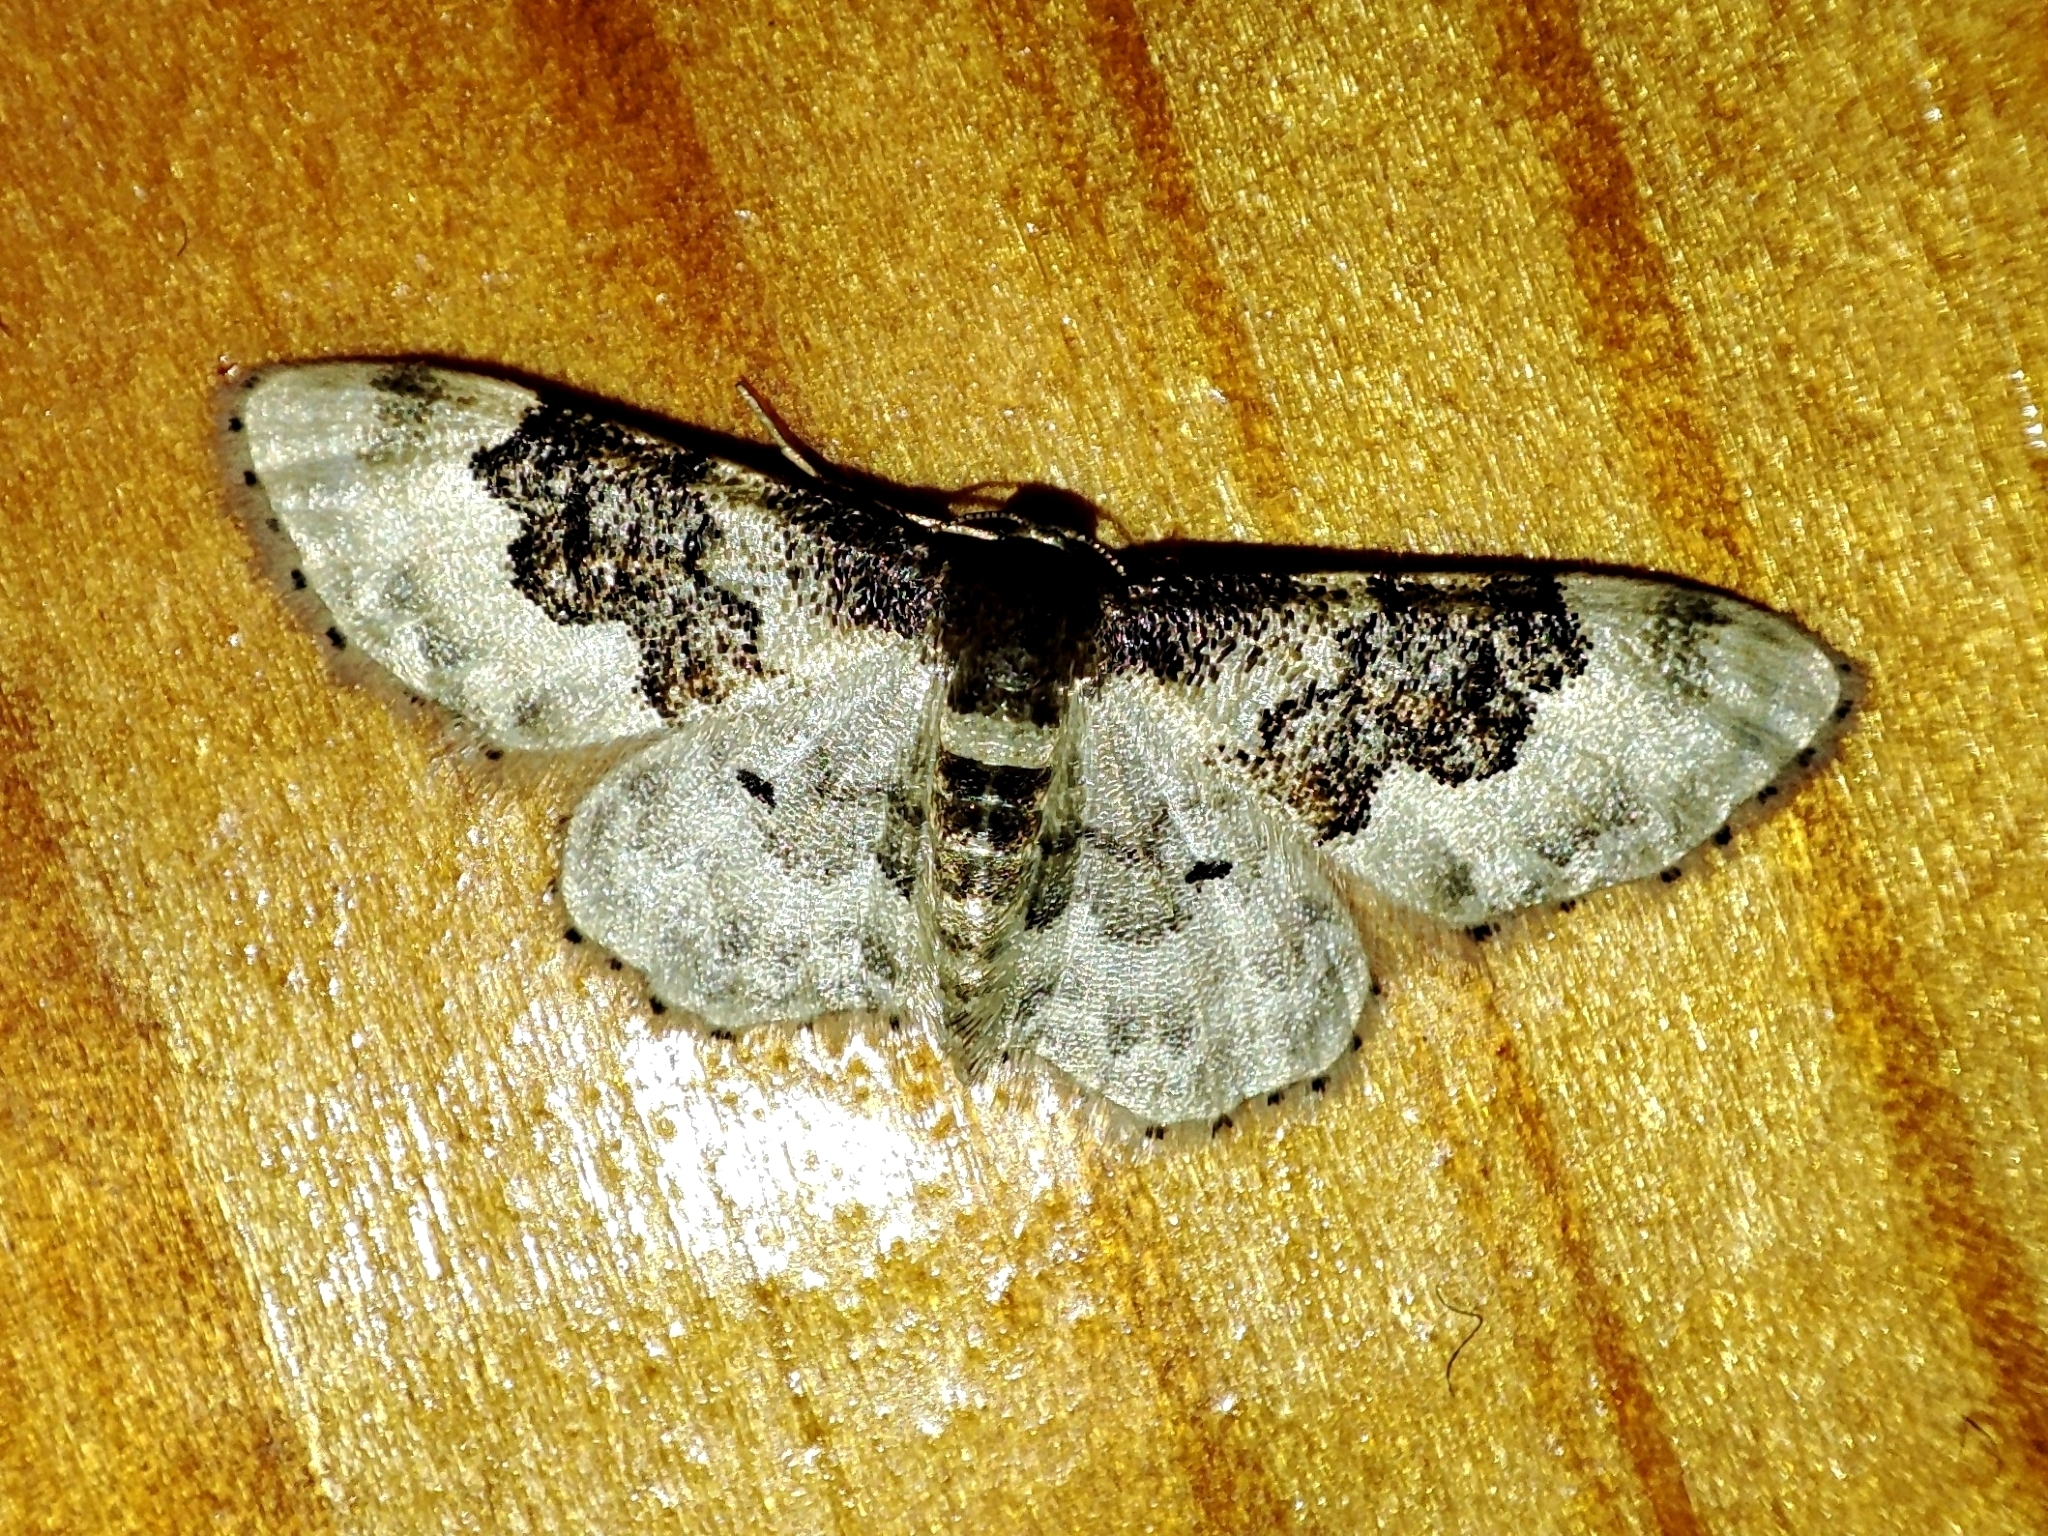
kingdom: Animalia
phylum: Arthropoda
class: Insecta
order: Lepidoptera
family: Geometridae
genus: Idaea
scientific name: Idaea rusticata
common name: Least carpet
